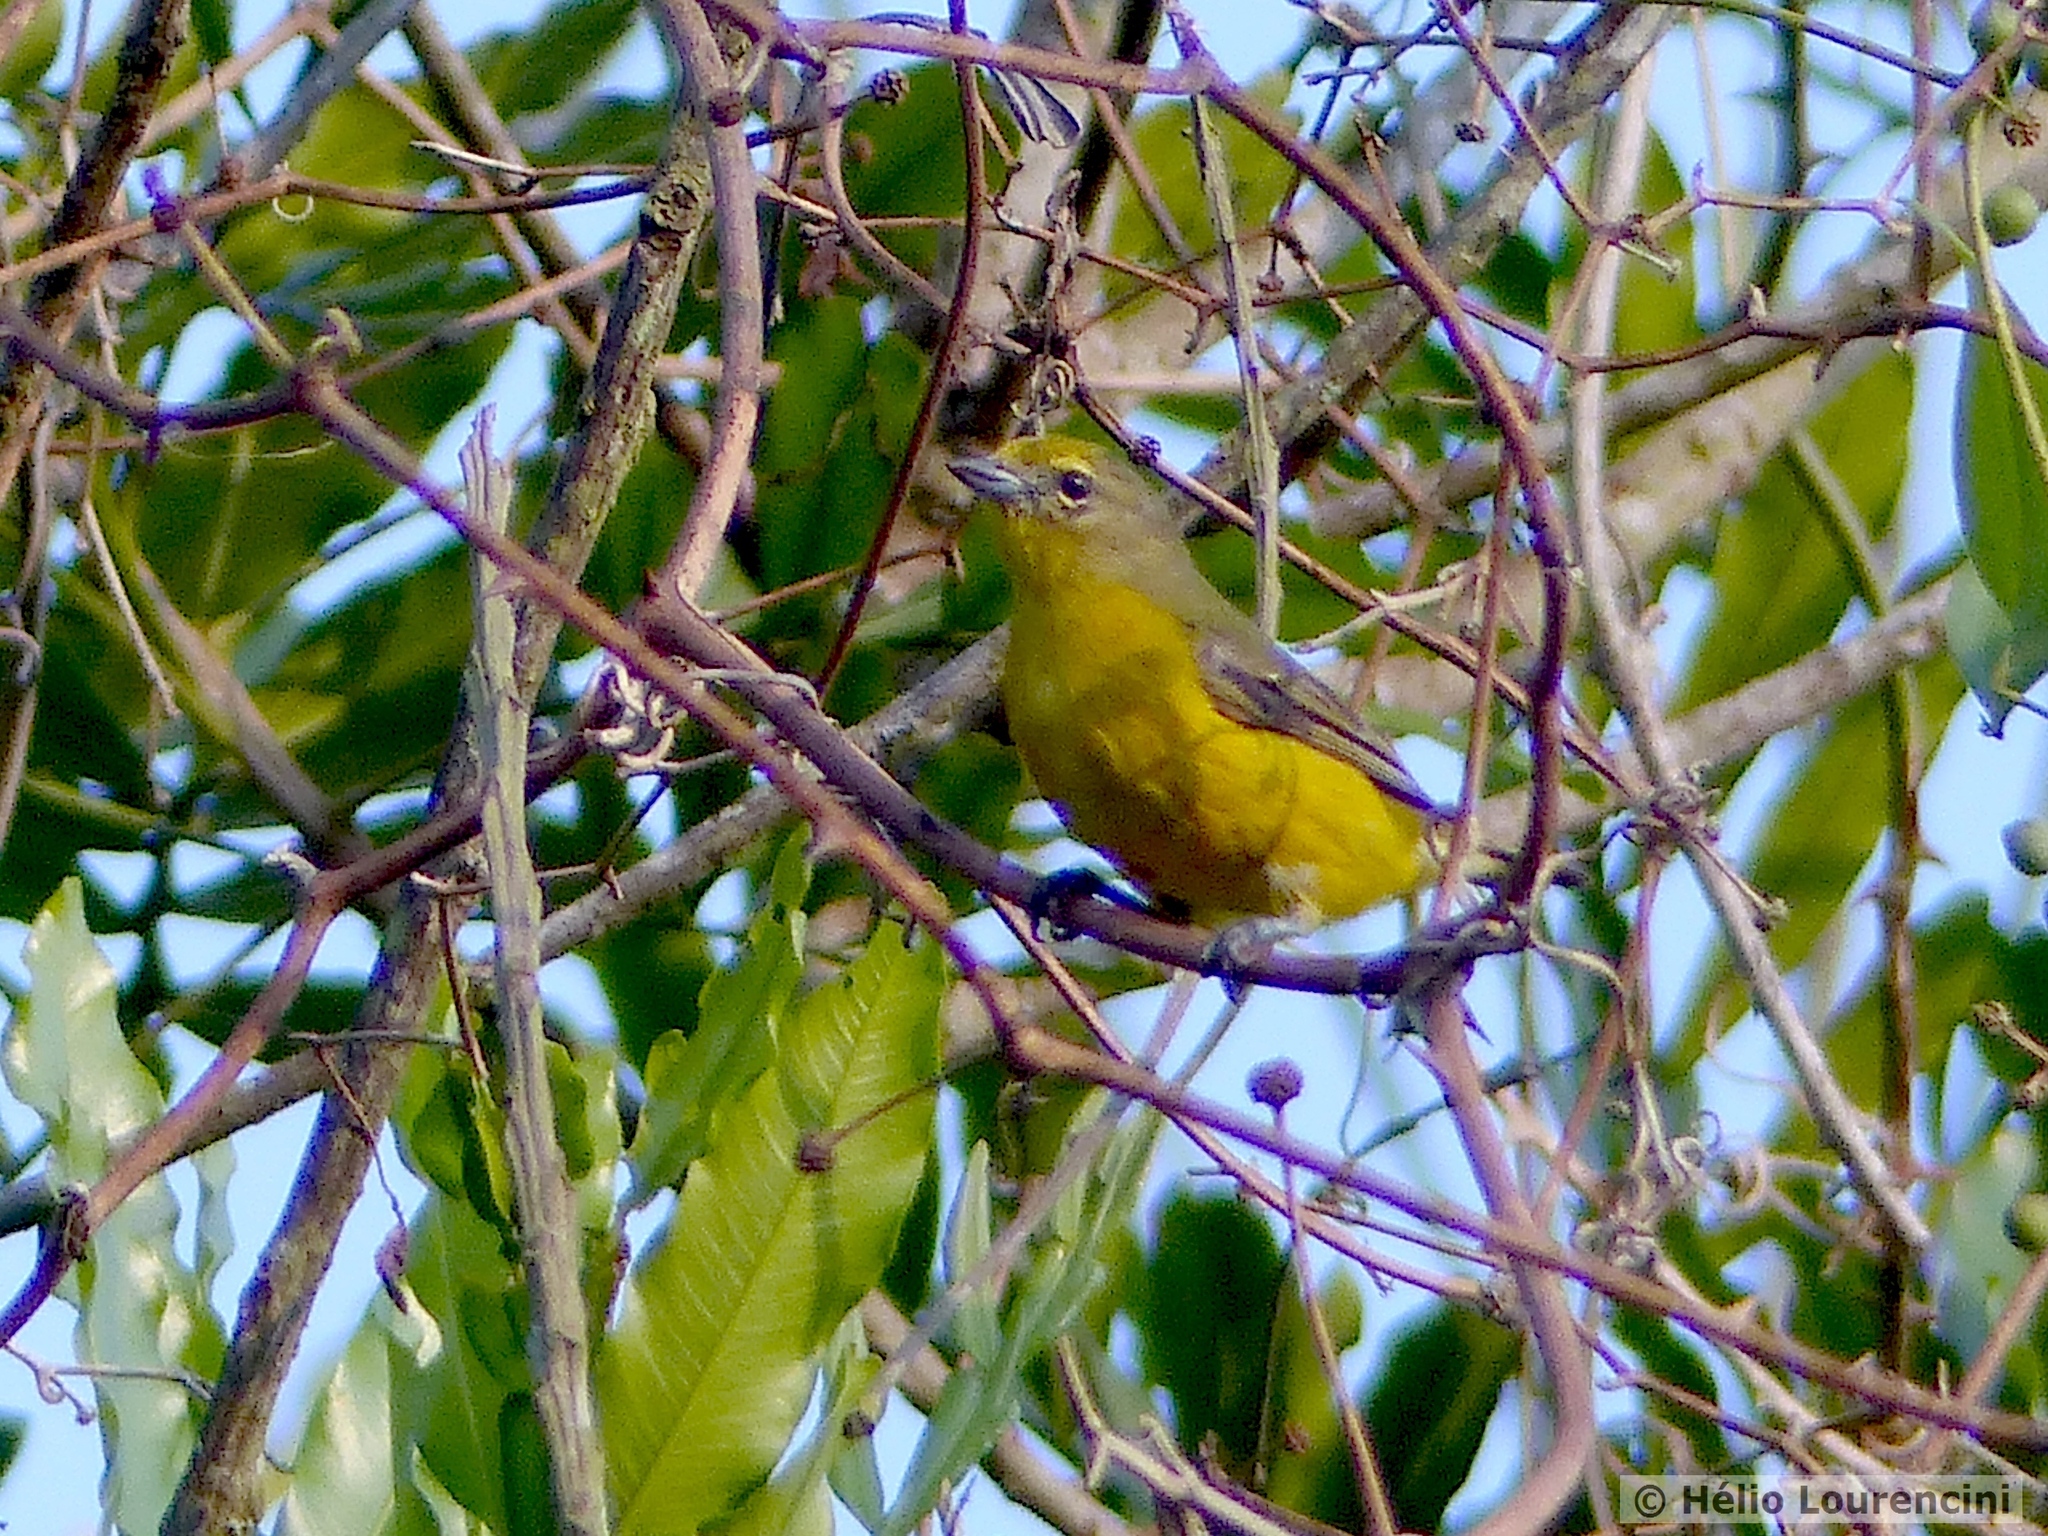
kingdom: Animalia
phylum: Chordata
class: Aves
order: Passeriformes
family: Fringillidae
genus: Euphonia
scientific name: Euphonia violacea
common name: Violaceous euphonia
